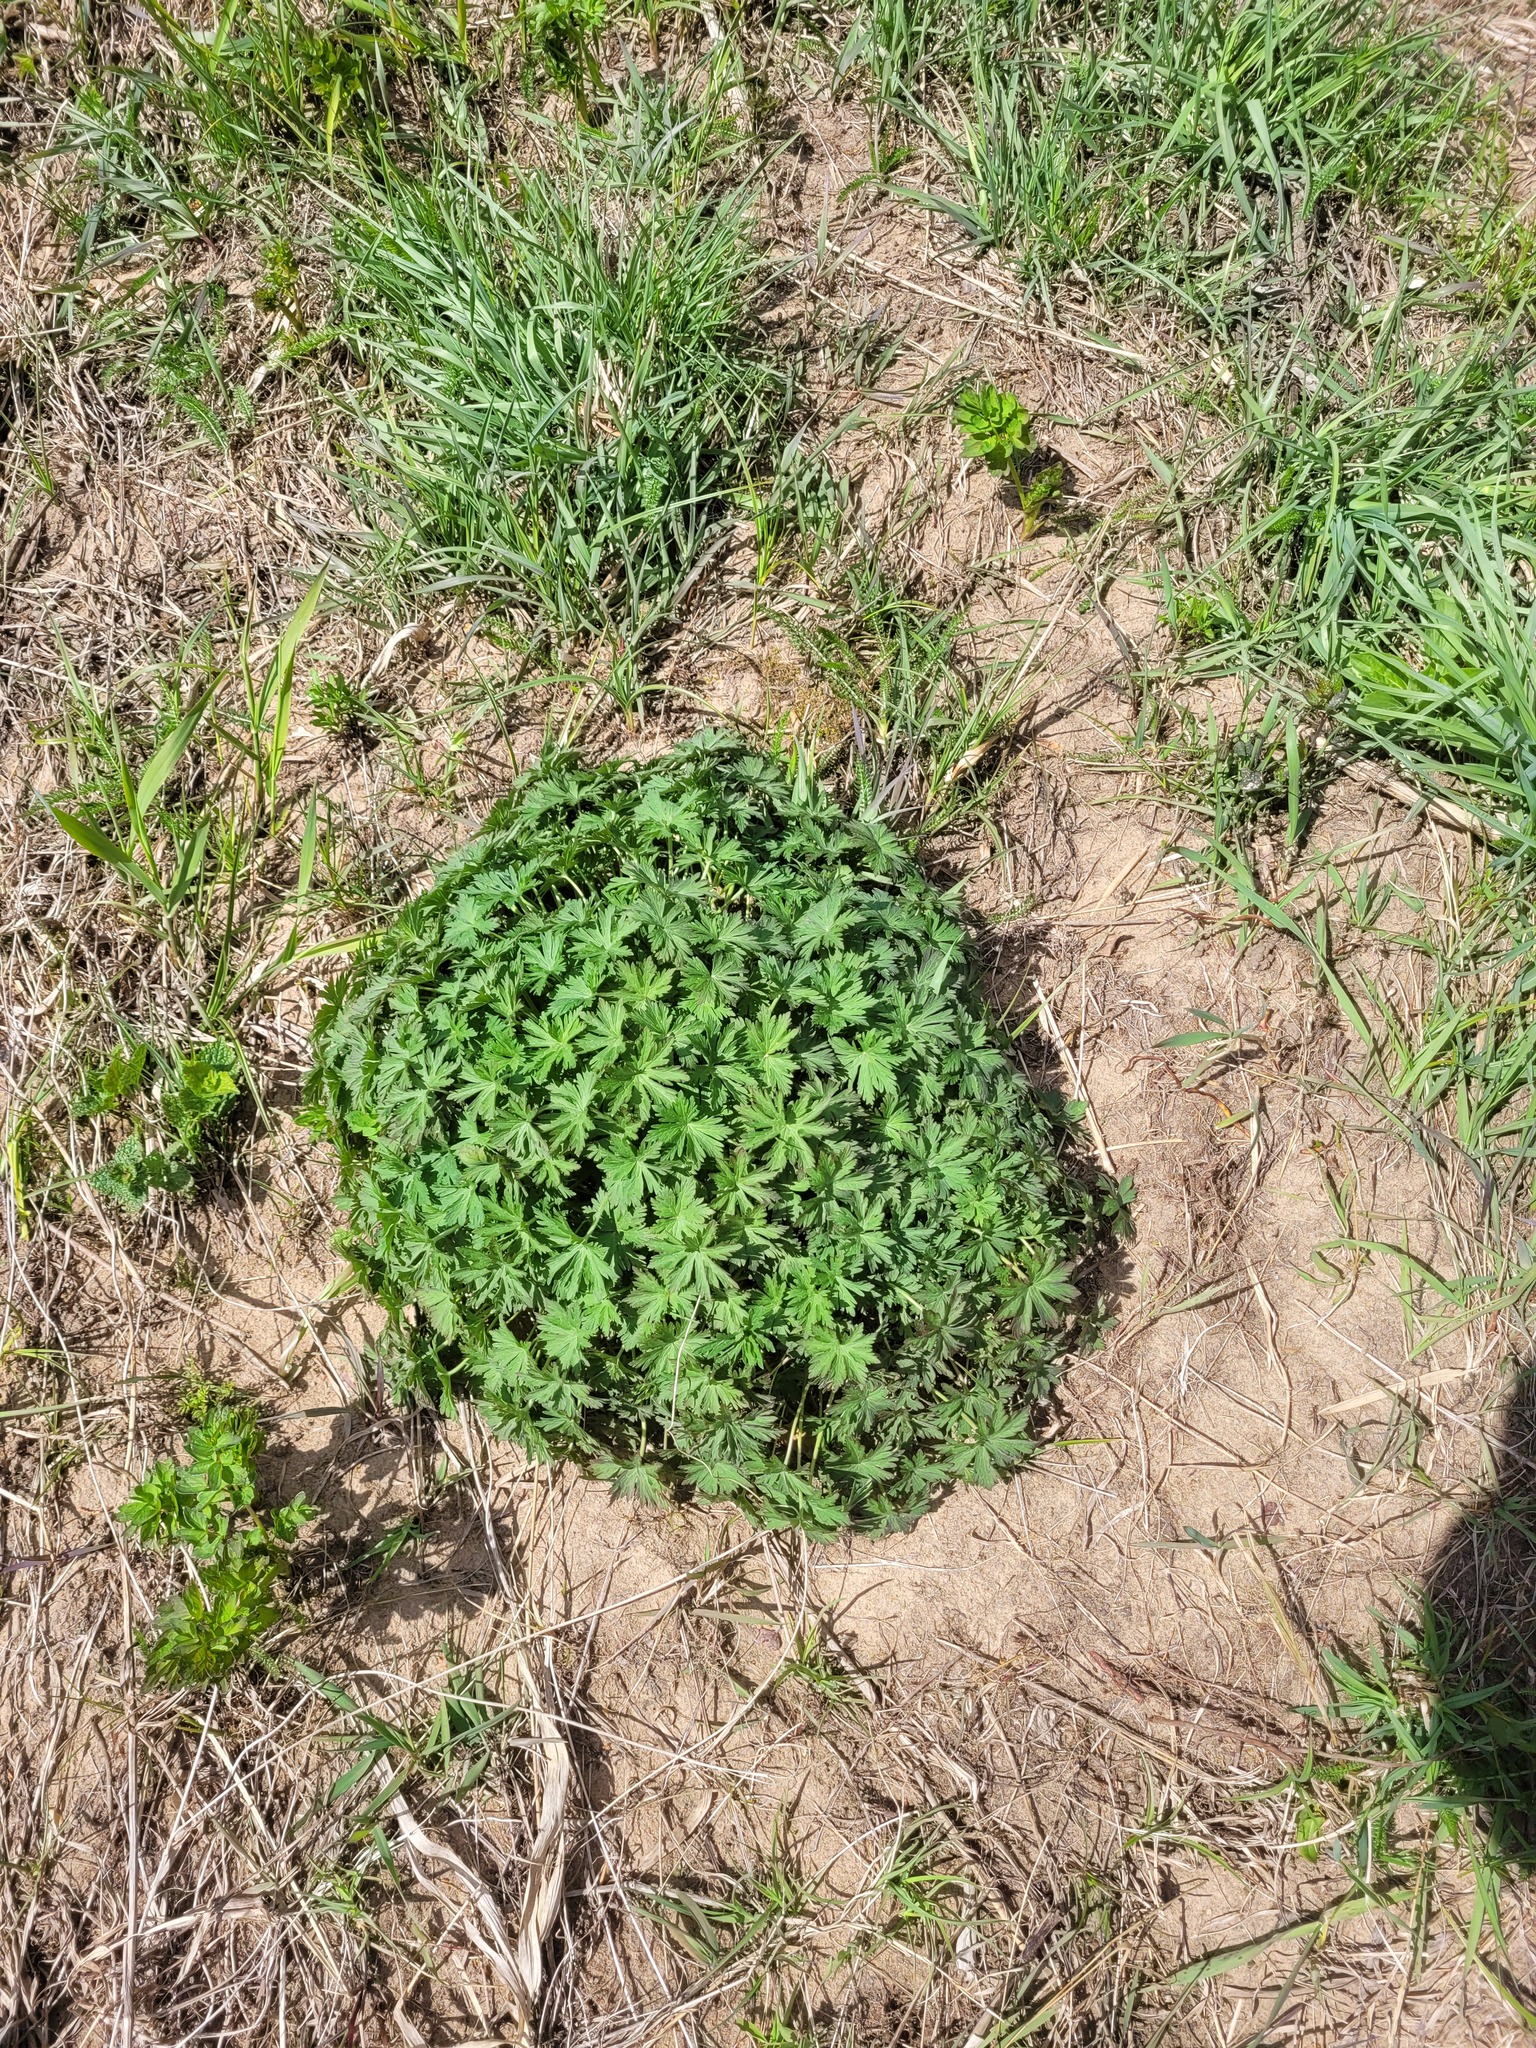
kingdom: Plantae
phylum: Tracheophyta
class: Magnoliopsida
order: Geraniales
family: Geraniaceae
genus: Geranium
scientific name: Geranium pratense
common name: Meadow crane's-bill
